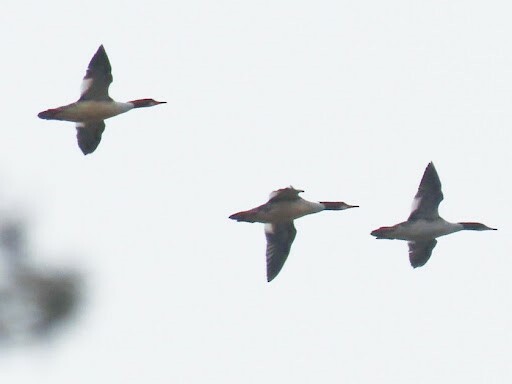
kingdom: Animalia
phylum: Chordata
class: Aves
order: Anseriformes
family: Anatidae
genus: Mergus
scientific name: Mergus merganser
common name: Common merganser
